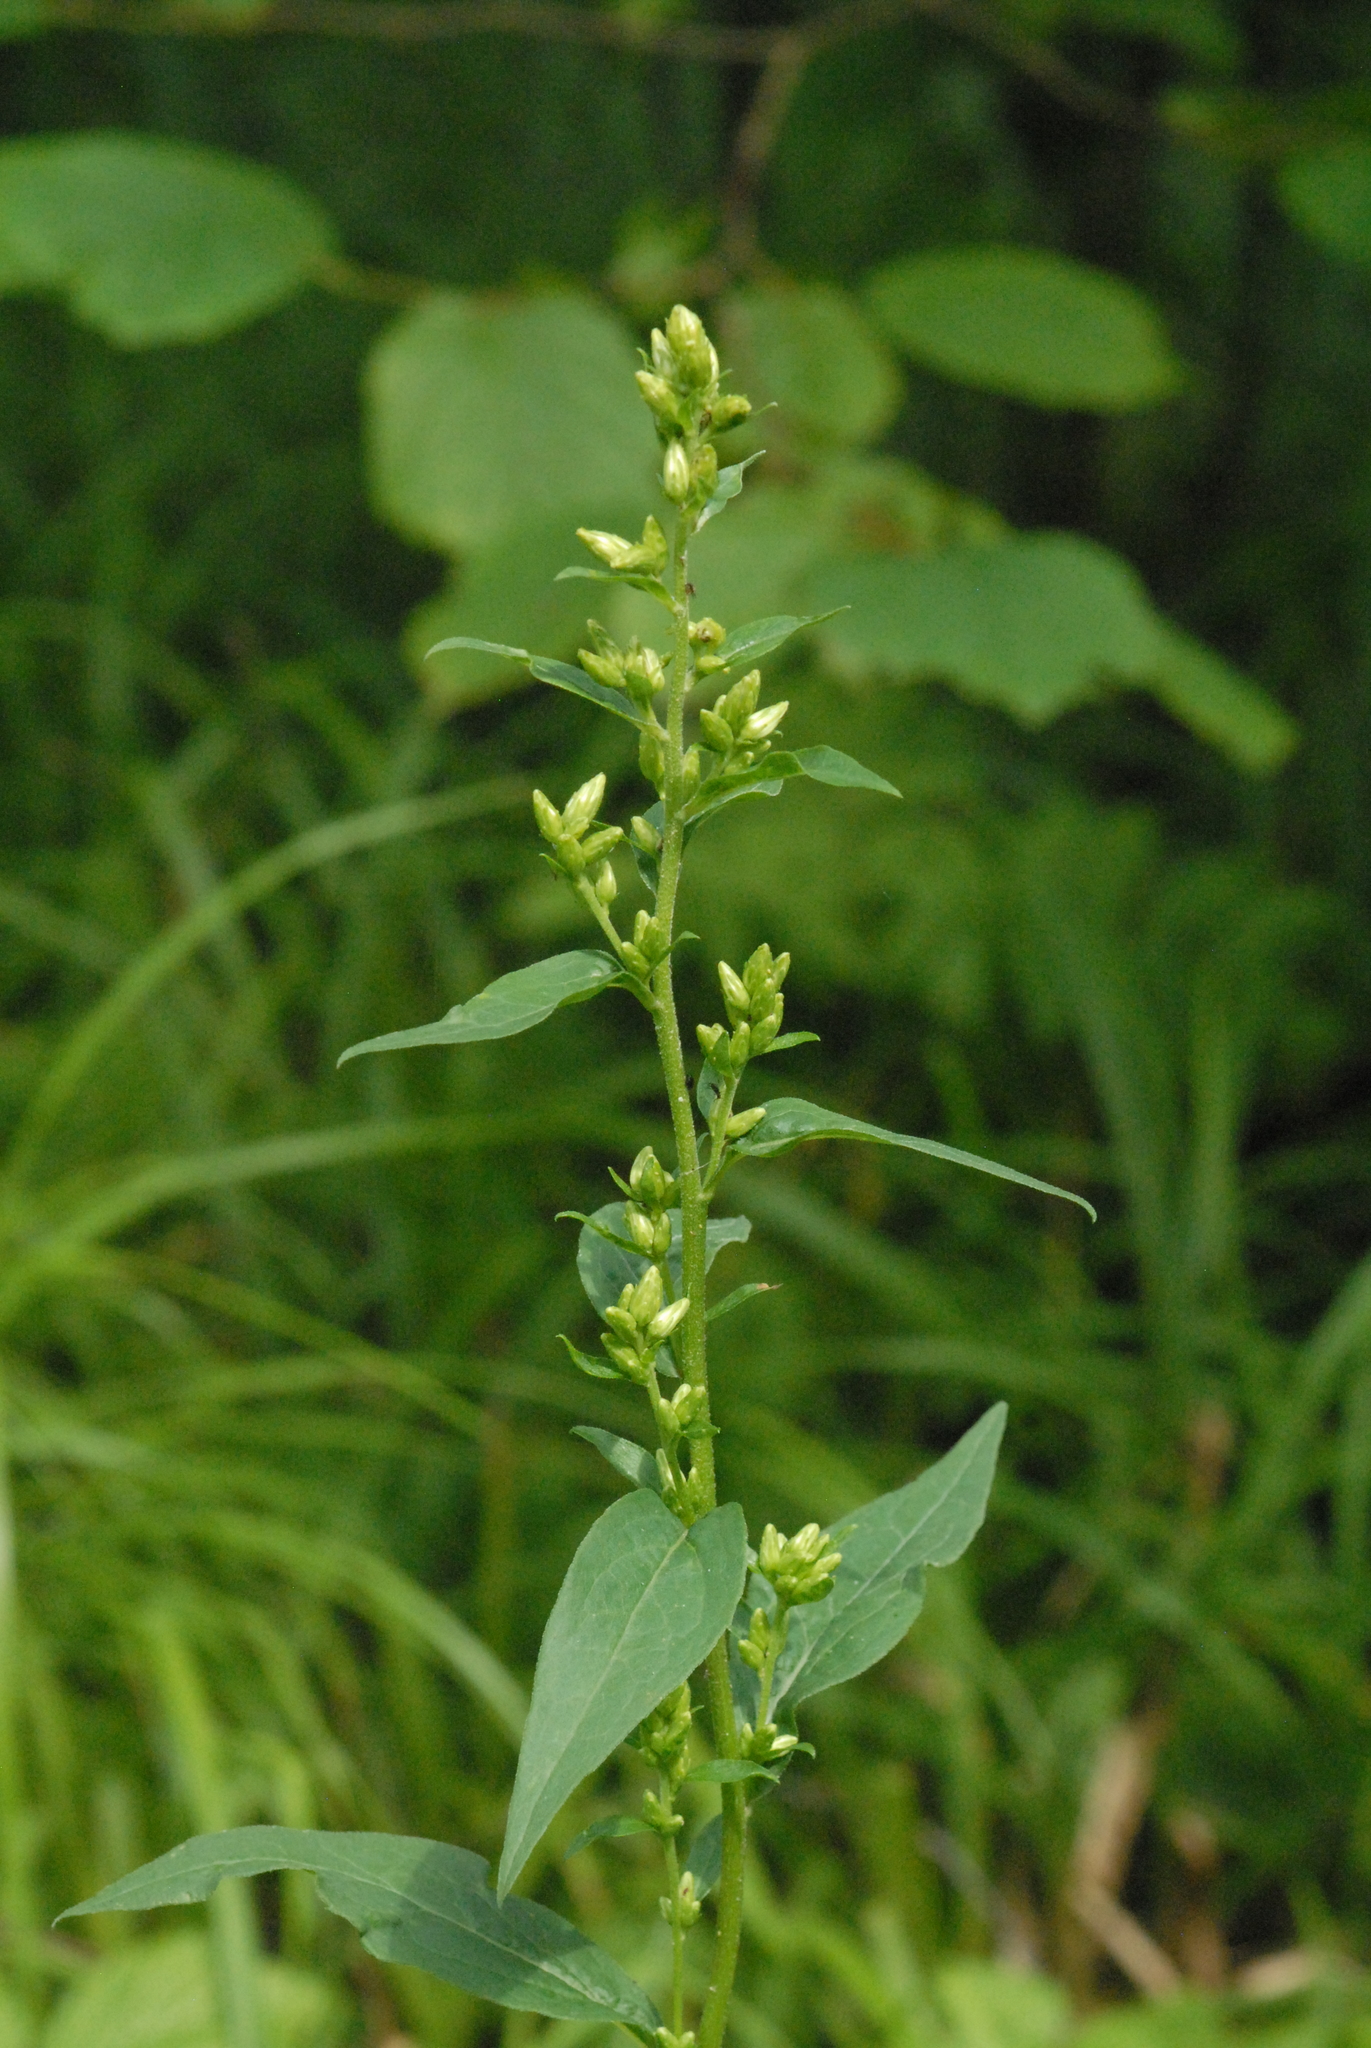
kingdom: Plantae
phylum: Tracheophyta
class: Magnoliopsida
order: Asterales
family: Asteraceae
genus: Solidago
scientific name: Solidago virgaurea
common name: Goldenrod
